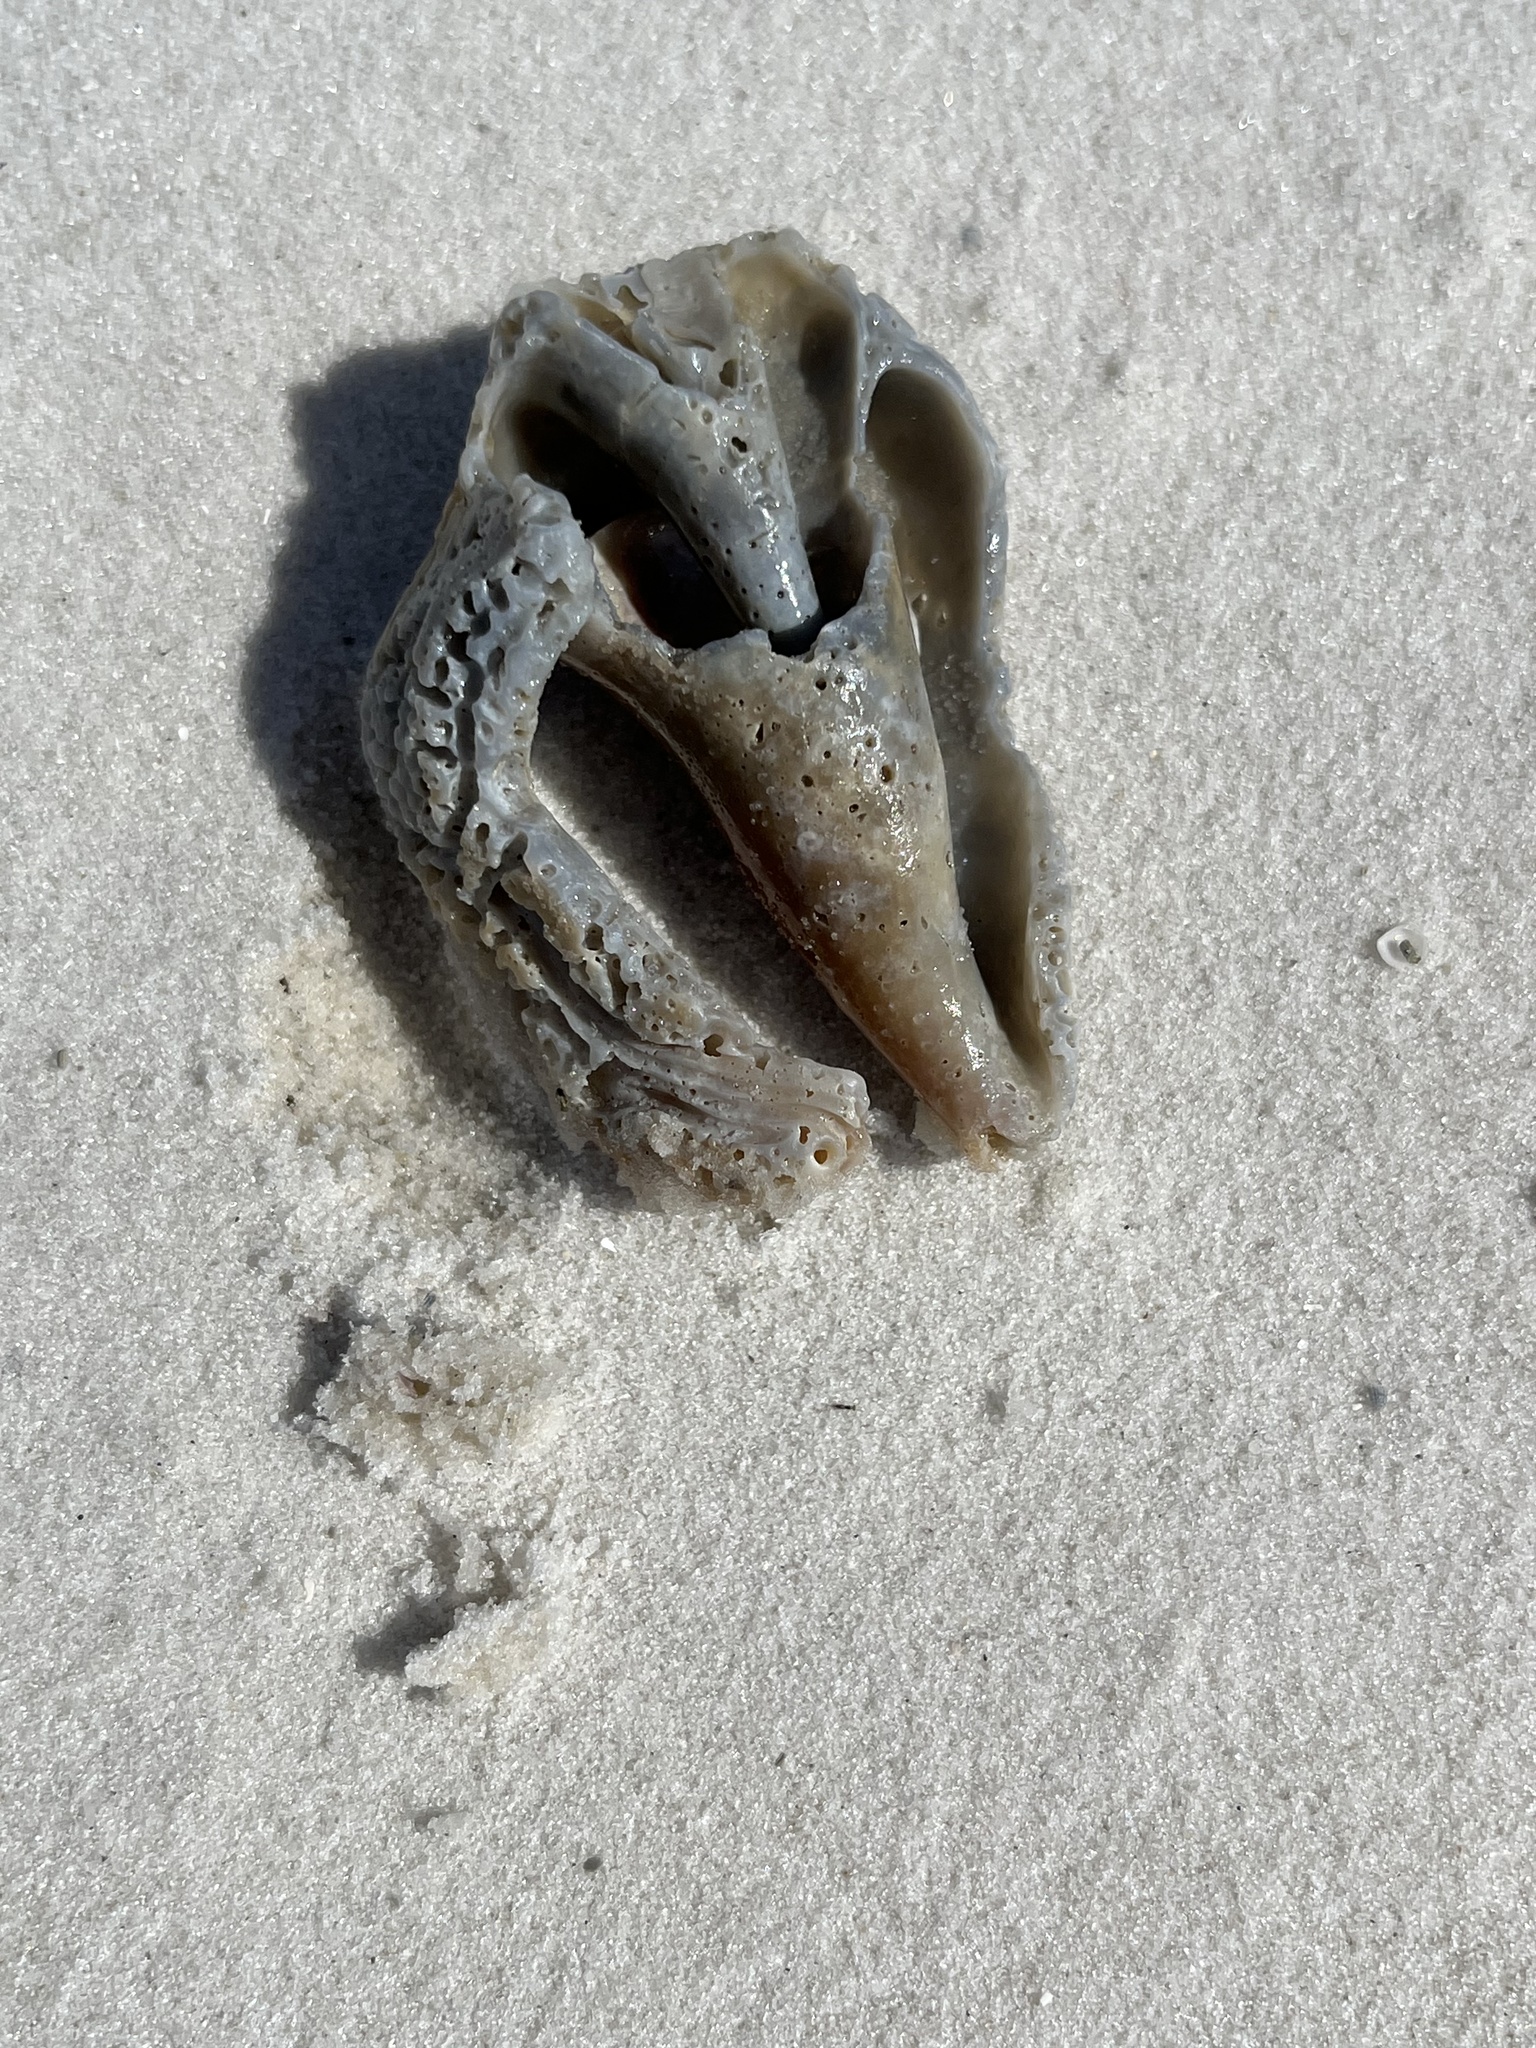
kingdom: Animalia
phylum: Mollusca
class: Gastropoda
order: Littorinimorpha
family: Strombidae
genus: Strombus
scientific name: Strombus alatus
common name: Florida fighting conch
